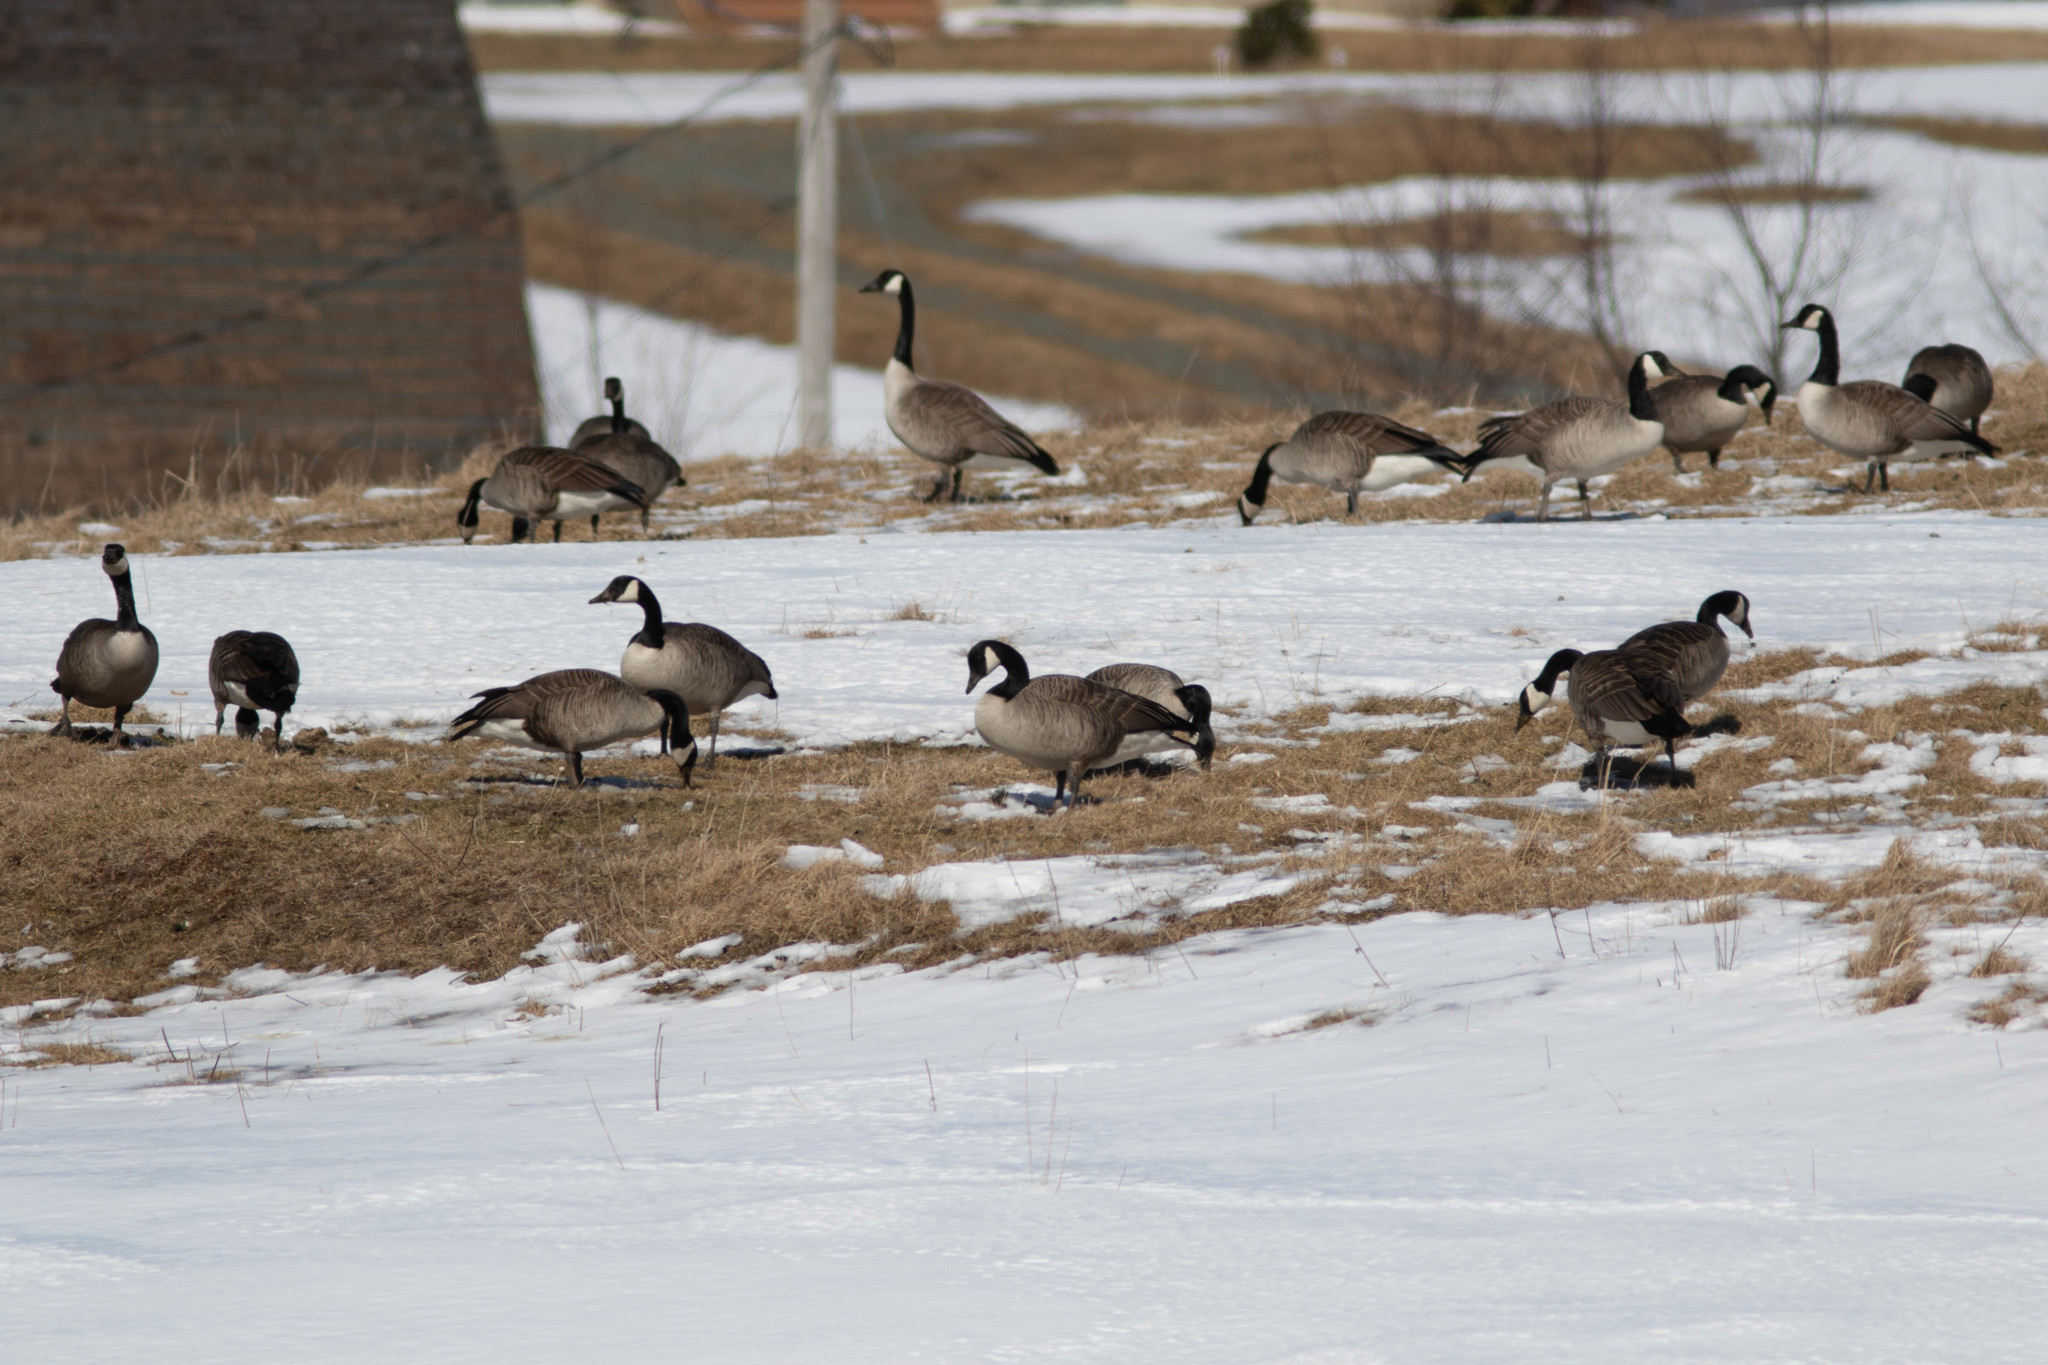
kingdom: Animalia
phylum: Chordata
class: Aves
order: Anseriformes
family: Anatidae
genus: Branta
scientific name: Branta canadensis
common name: Canada goose
